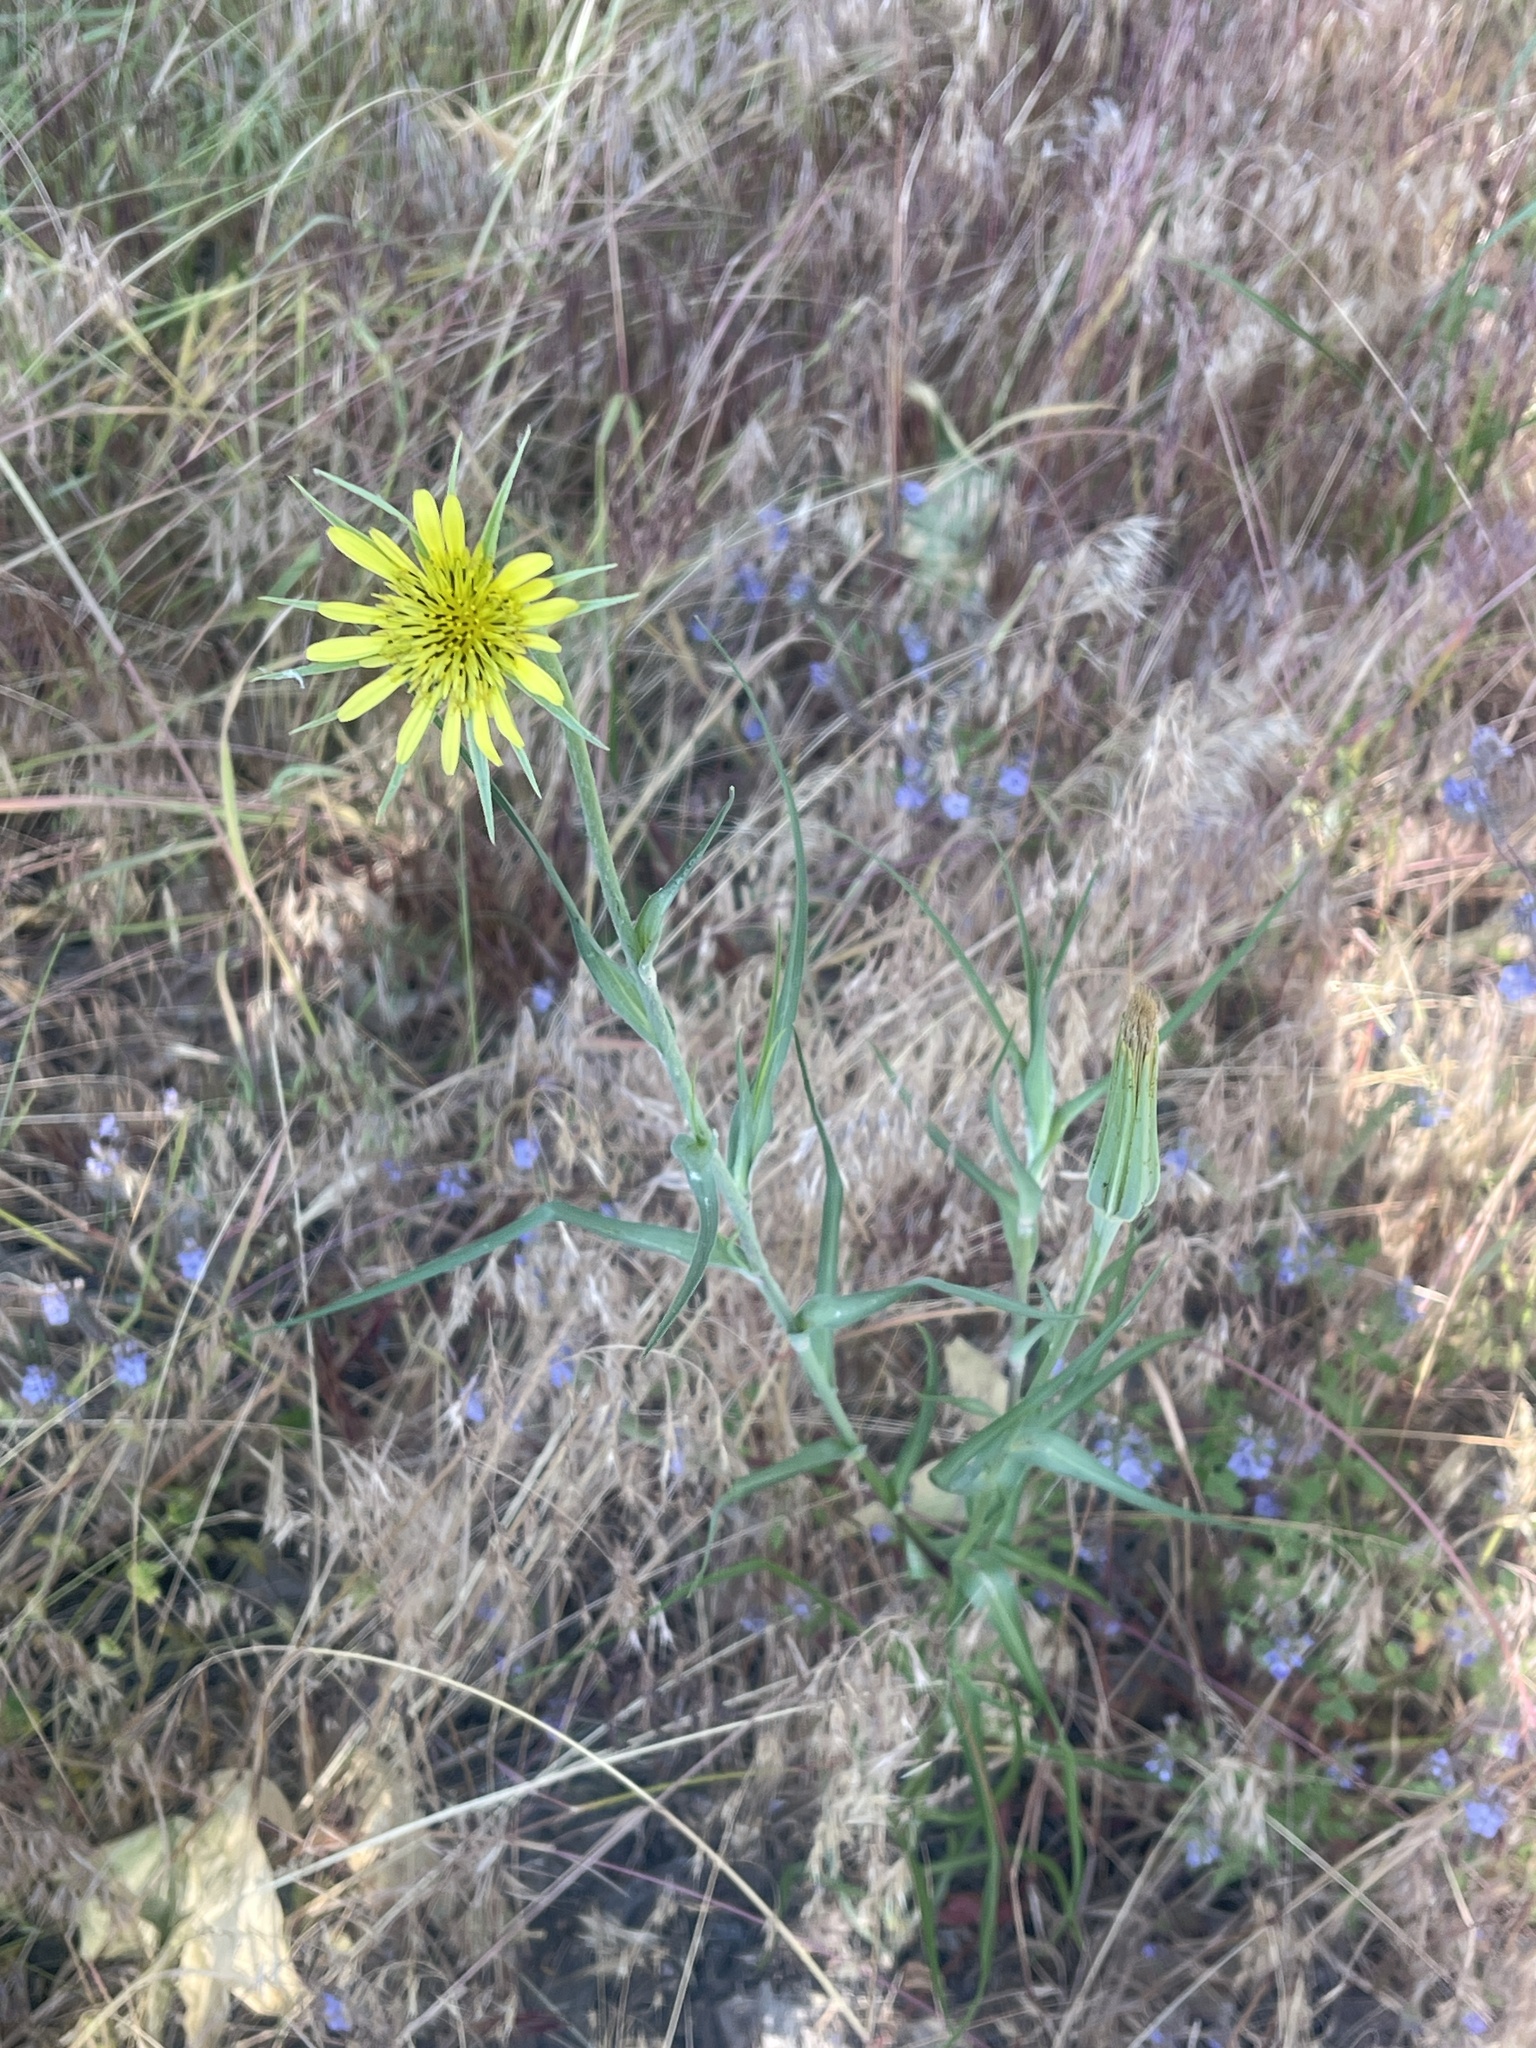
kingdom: Plantae
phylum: Tracheophyta
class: Magnoliopsida
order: Asterales
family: Asteraceae
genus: Tragopogon
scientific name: Tragopogon dubius
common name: Yellow salsify
